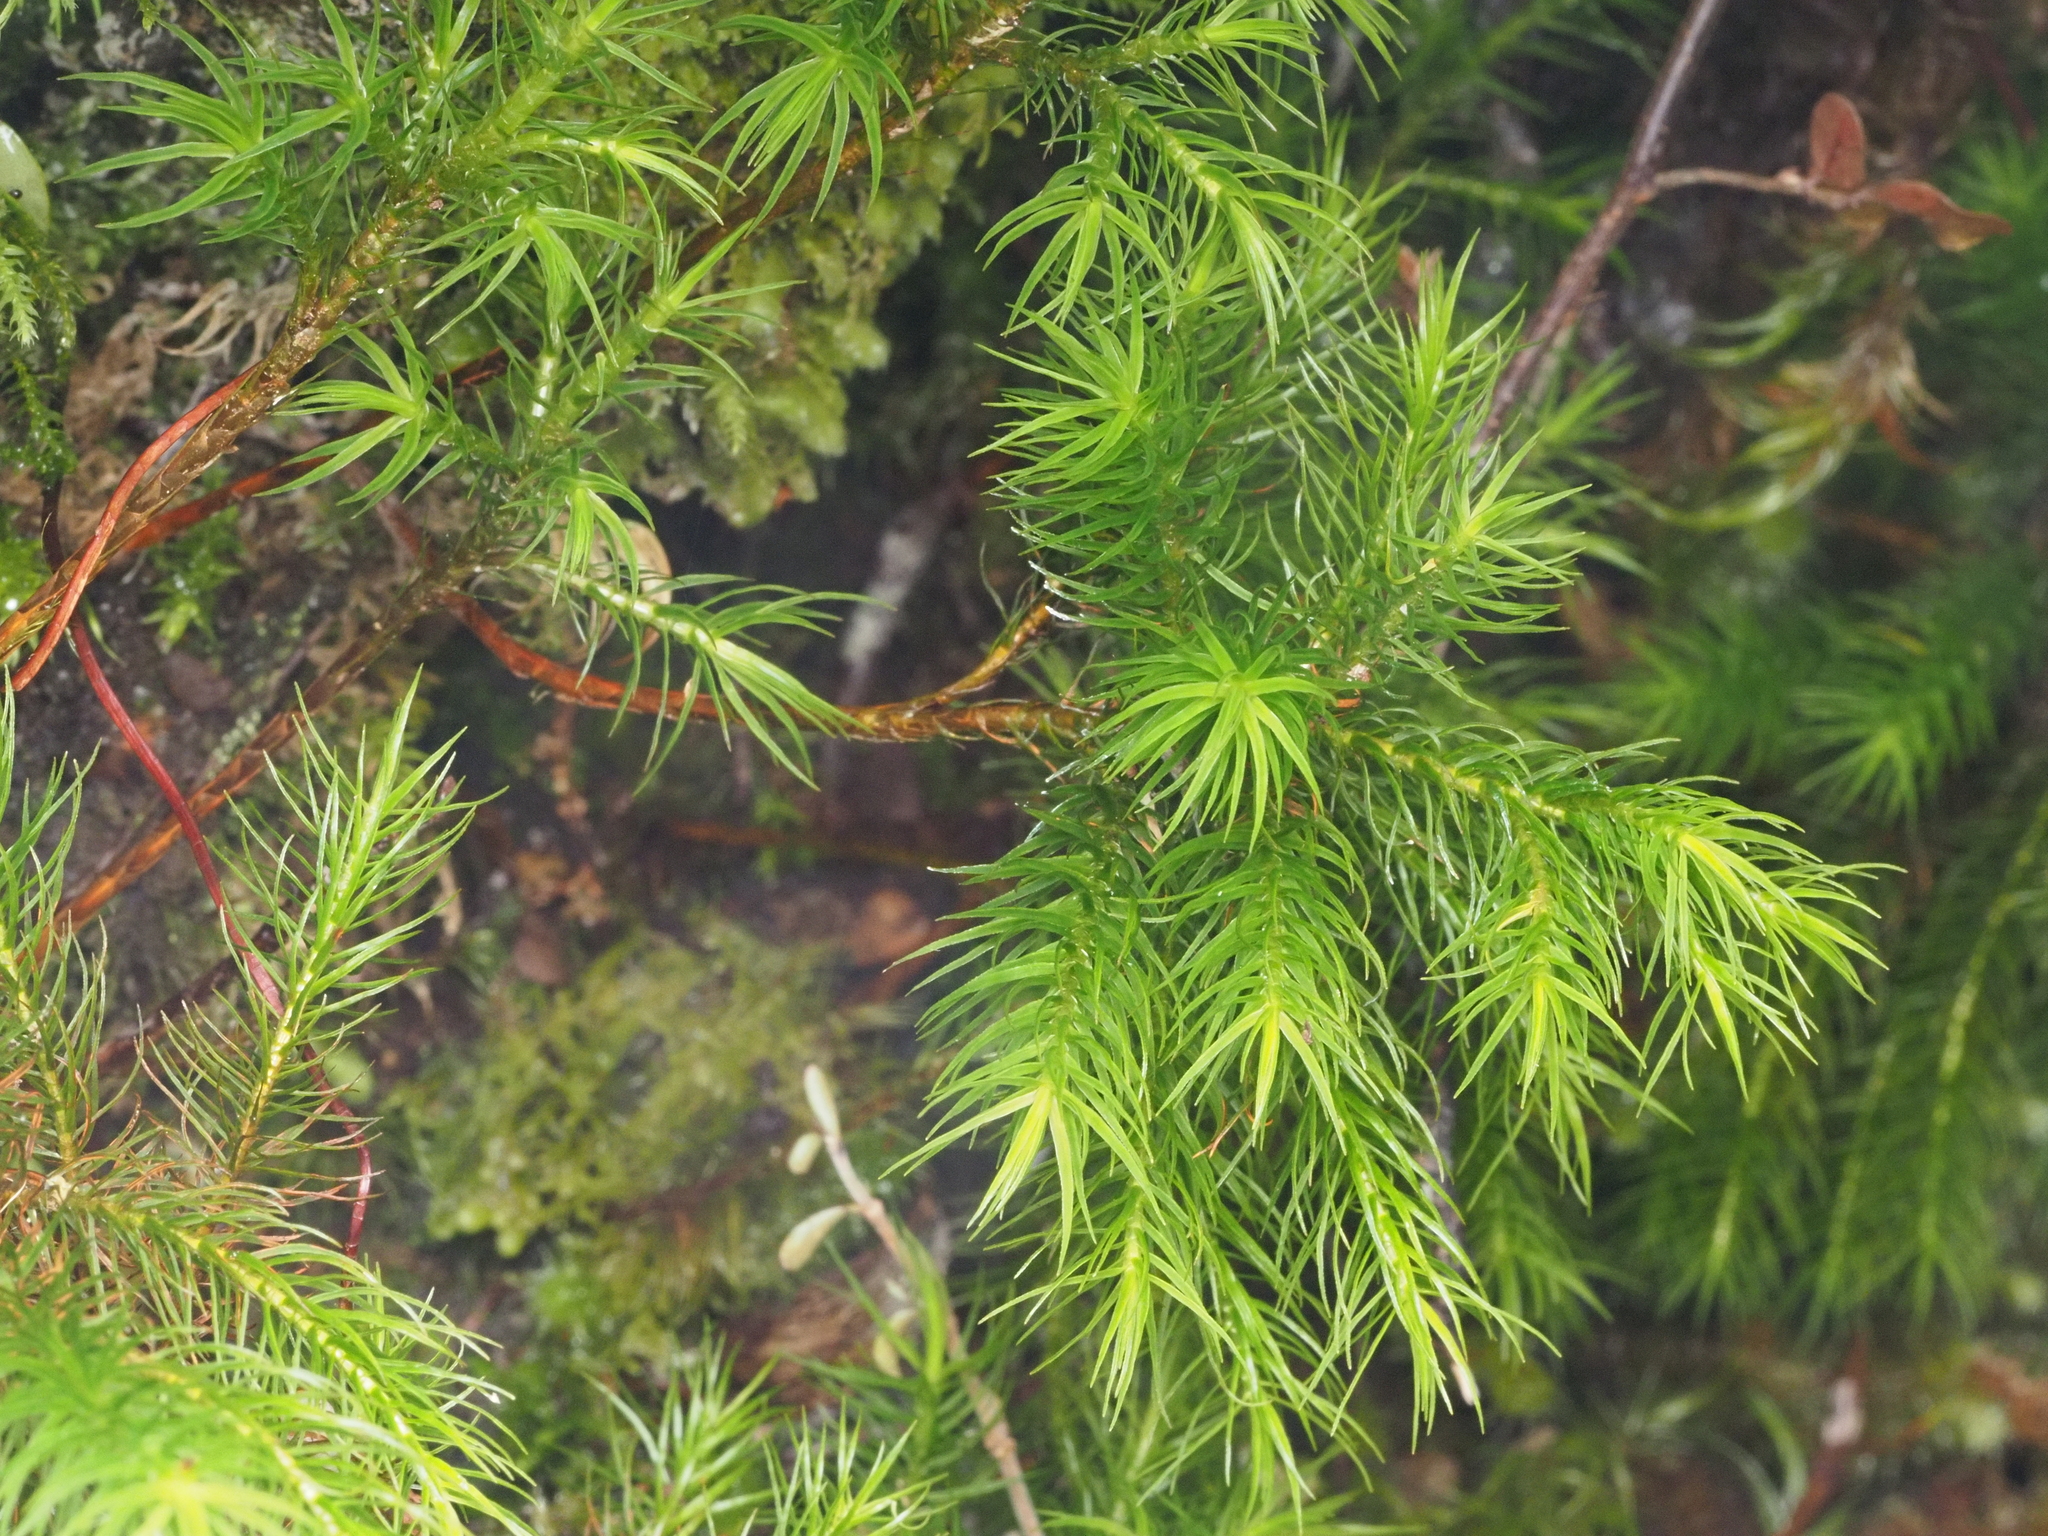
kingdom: Plantae
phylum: Bryophyta
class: Polytrichopsida
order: Polytrichales
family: Polytrichaceae
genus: Dendroligotrichum
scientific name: Dendroligotrichum tongariroense
